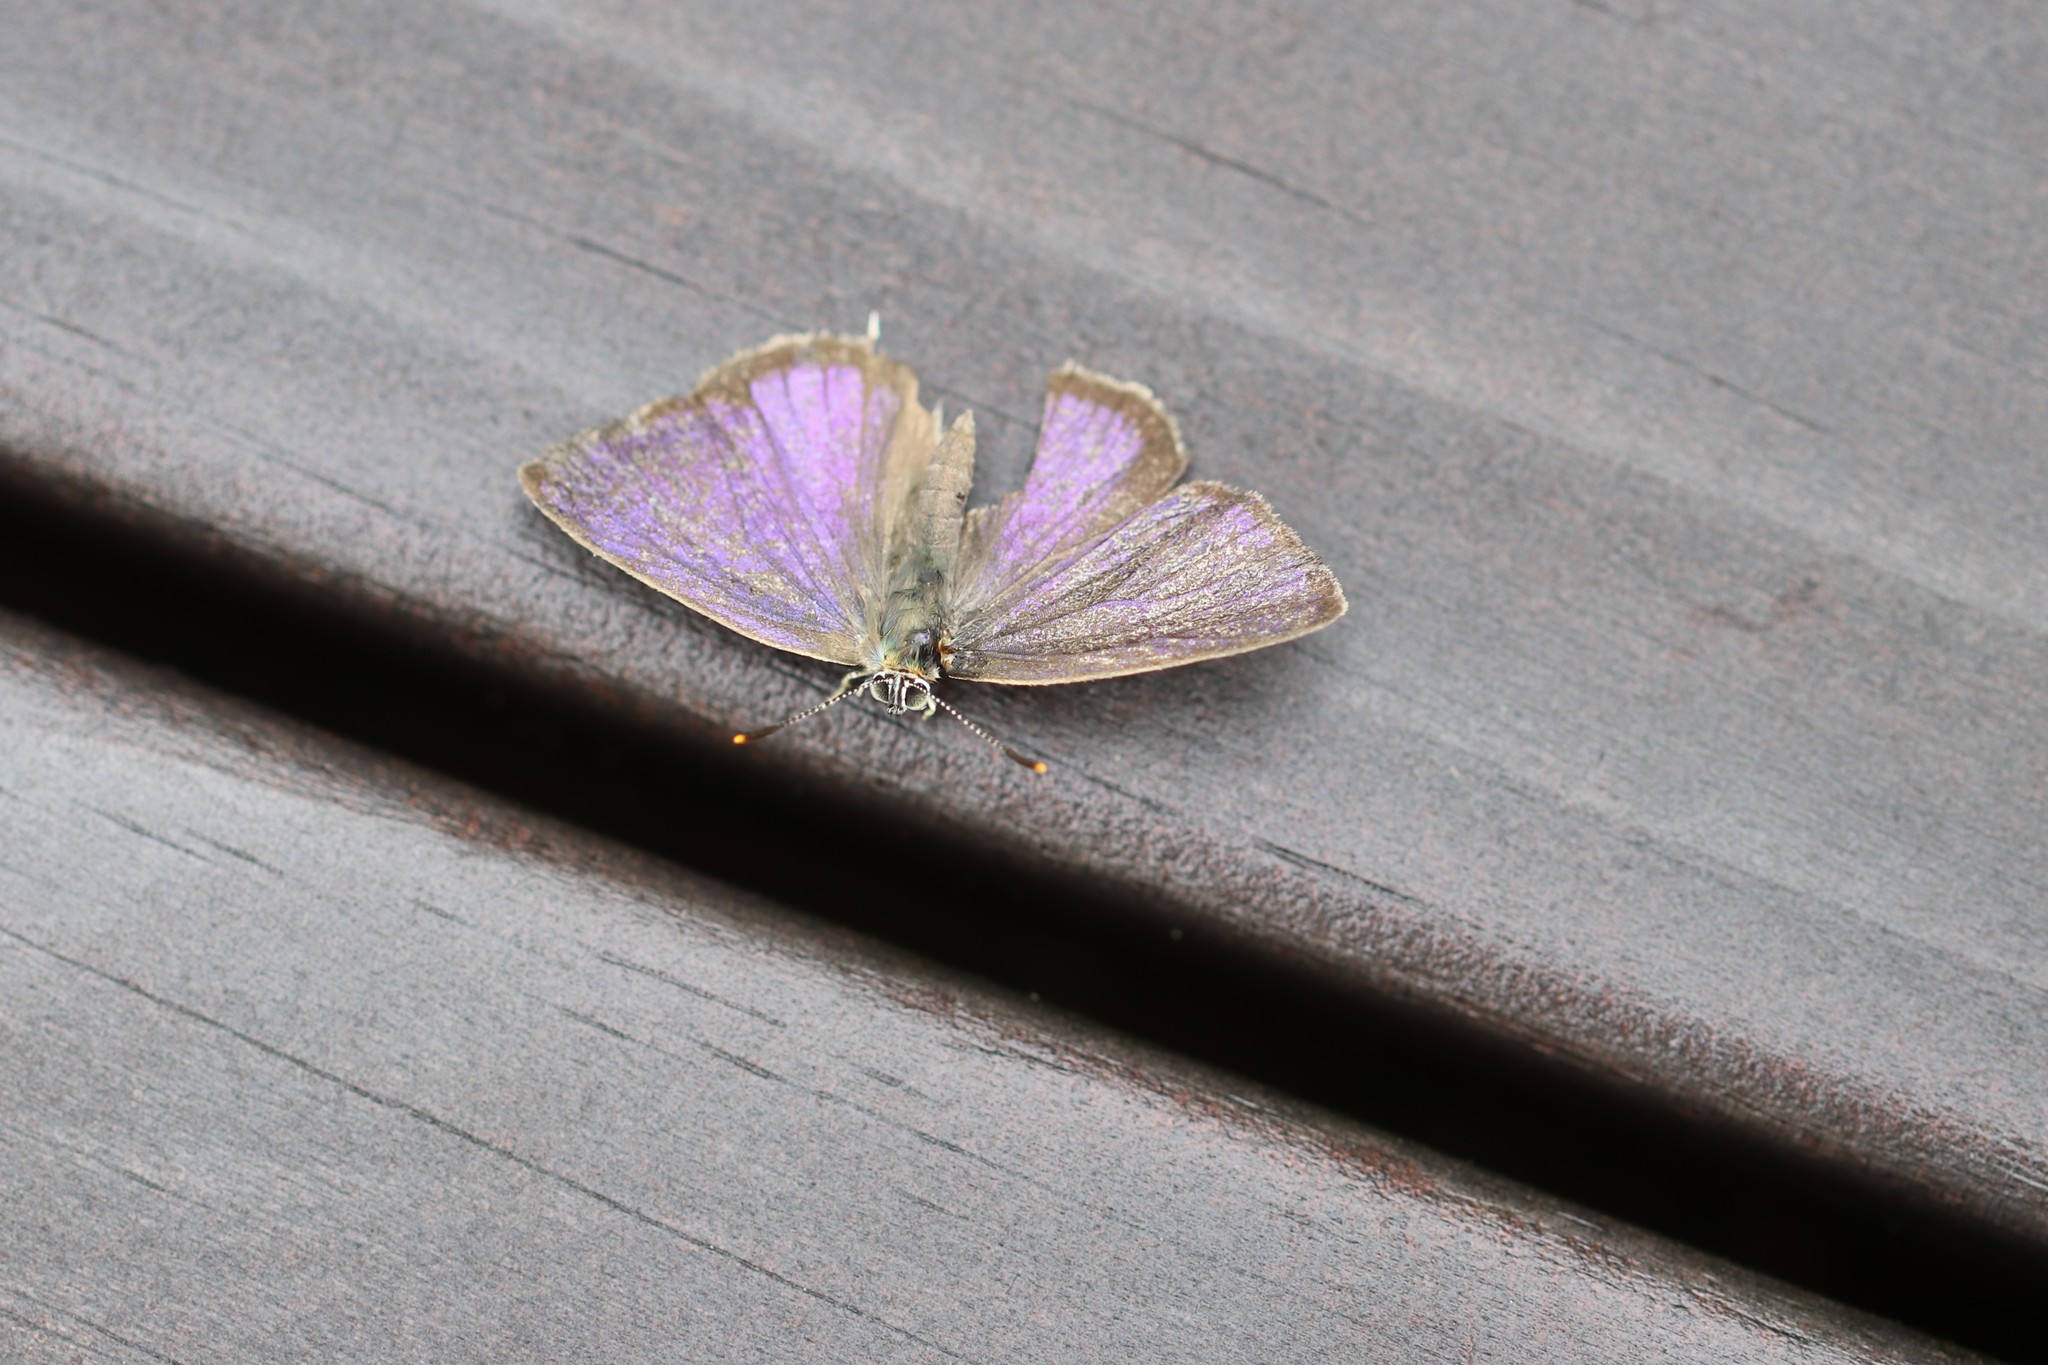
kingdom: Animalia
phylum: Arthropoda
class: Insecta
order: Lepidoptera
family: Lycaenidae
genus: Quercusia
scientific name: Quercusia quercus
